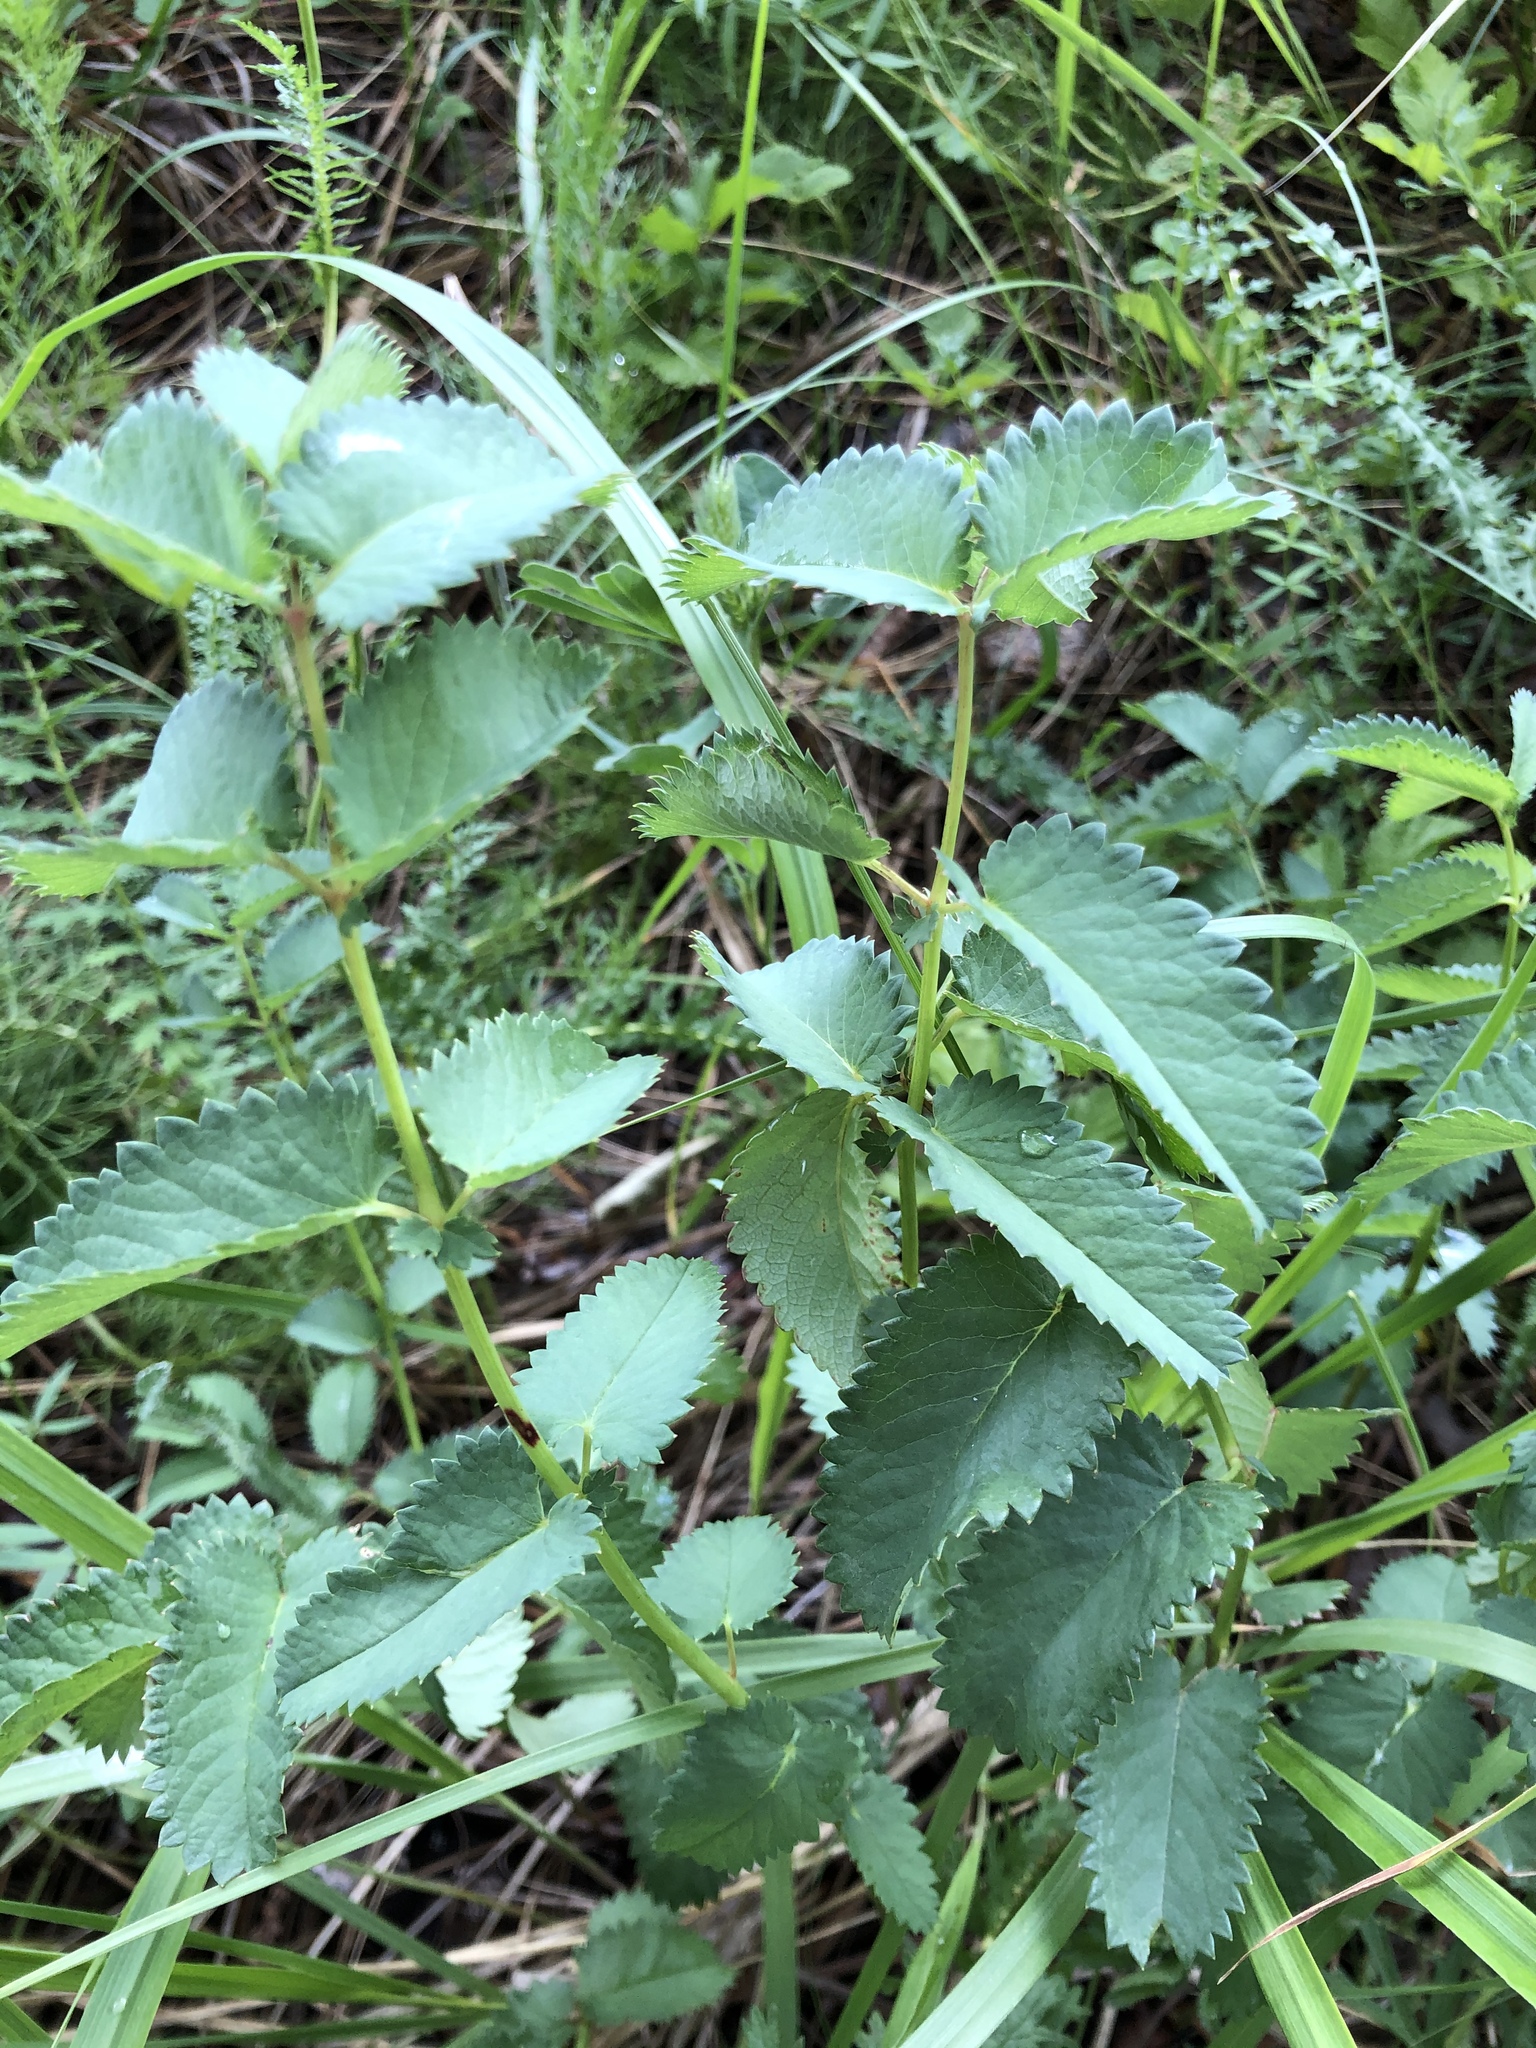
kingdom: Plantae
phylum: Tracheophyta
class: Magnoliopsida
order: Rosales
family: Rosaceae
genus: Sanguisorba
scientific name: Sanguisorba officinalis
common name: Great burnet
